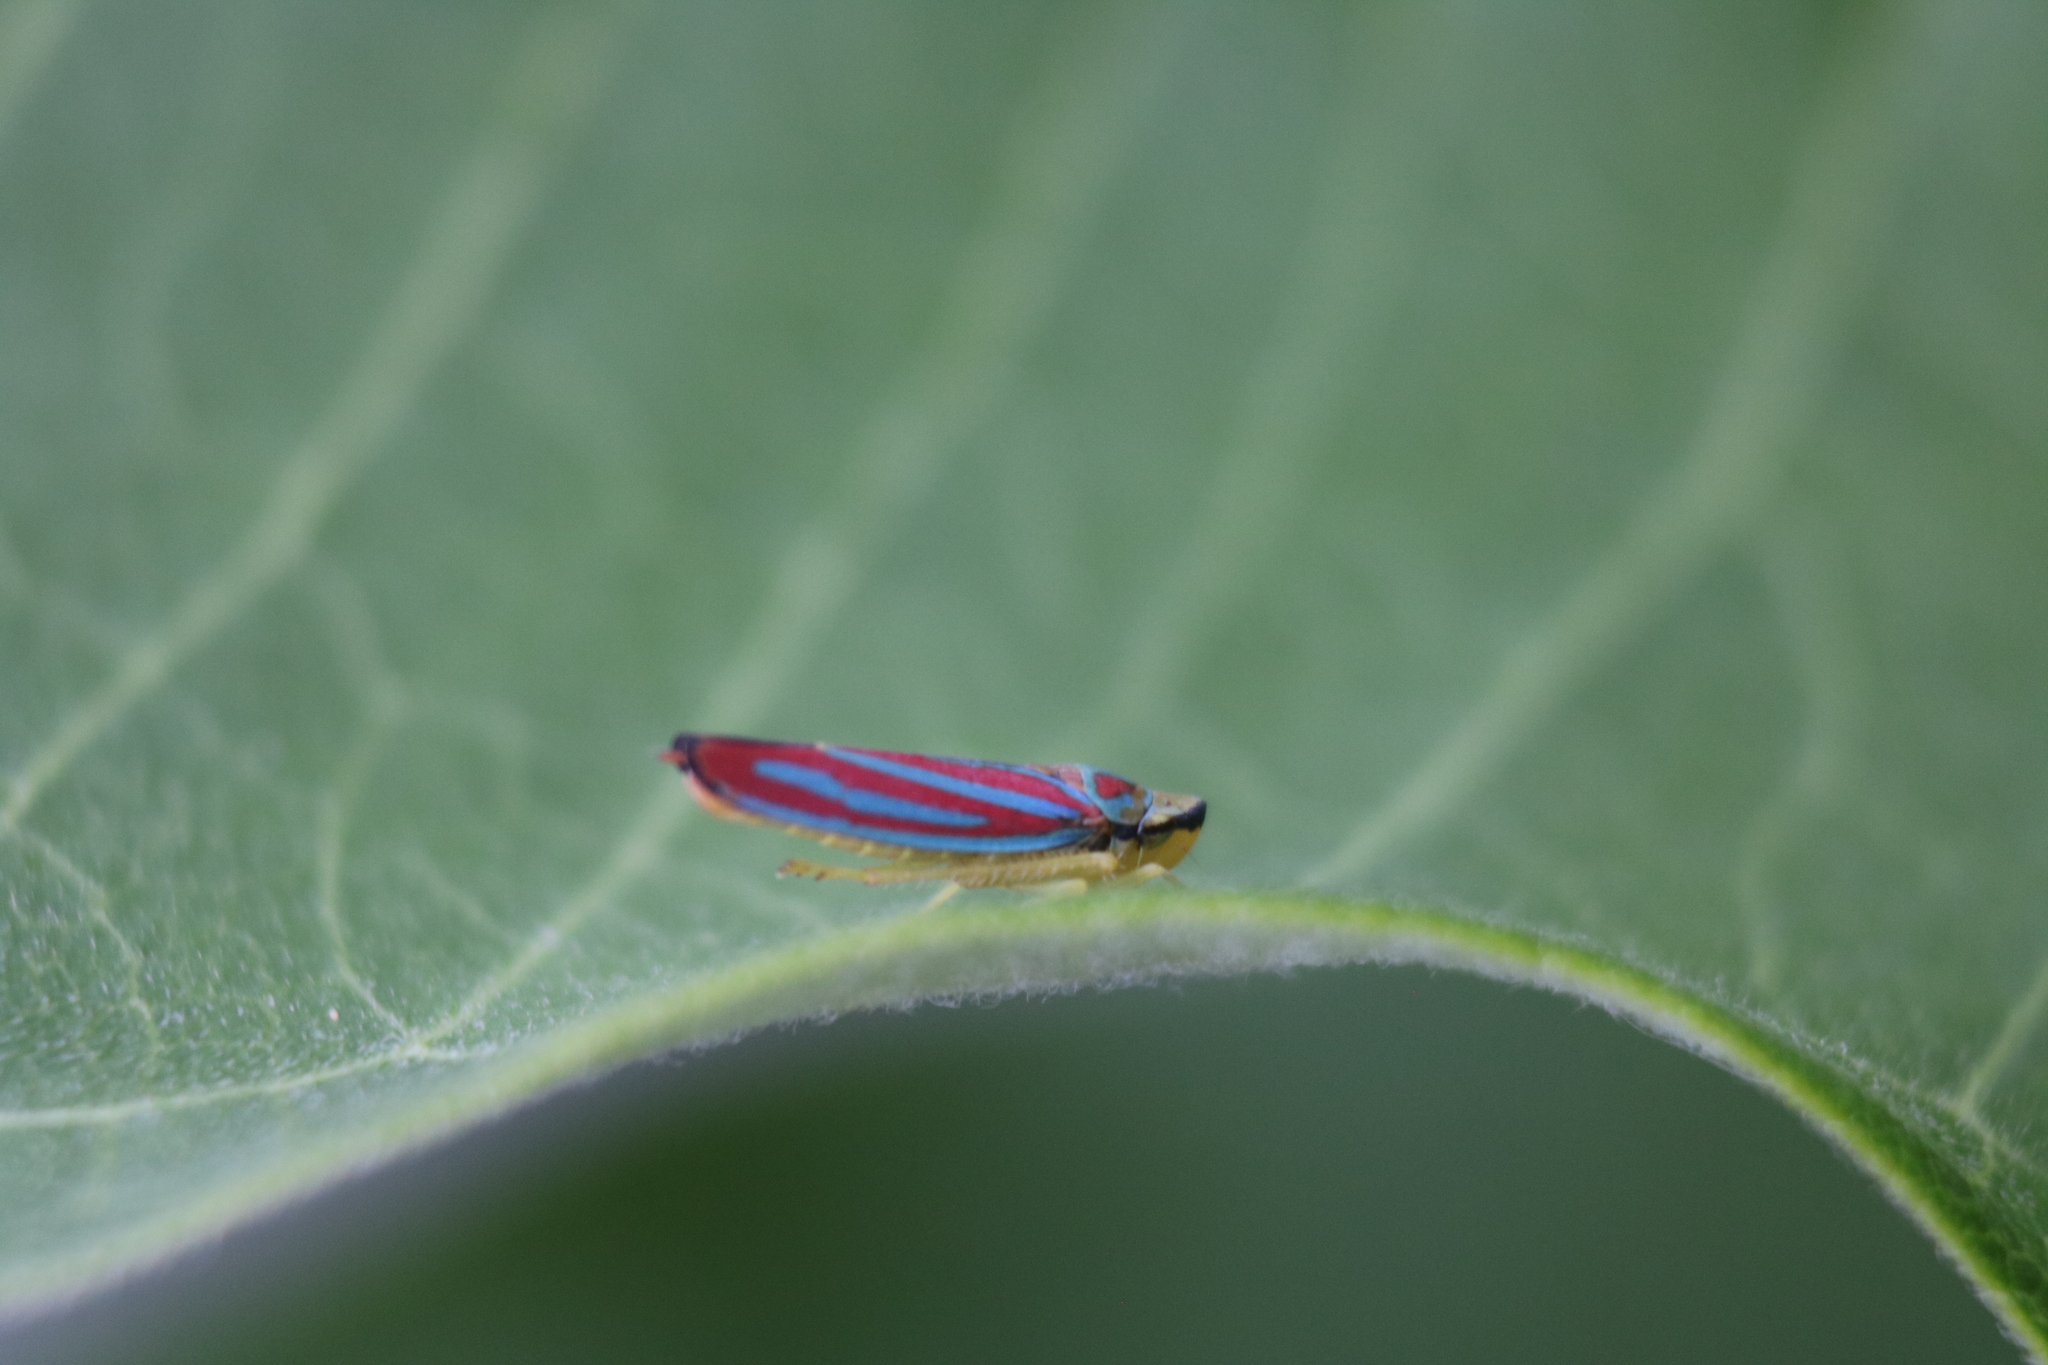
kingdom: Animalia
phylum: Arthropoda
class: Insecta
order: Hemiptera
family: Cicadellidae
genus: Graphocephala
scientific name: Graphocephala coccinea
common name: Candy-striped leafhopper
